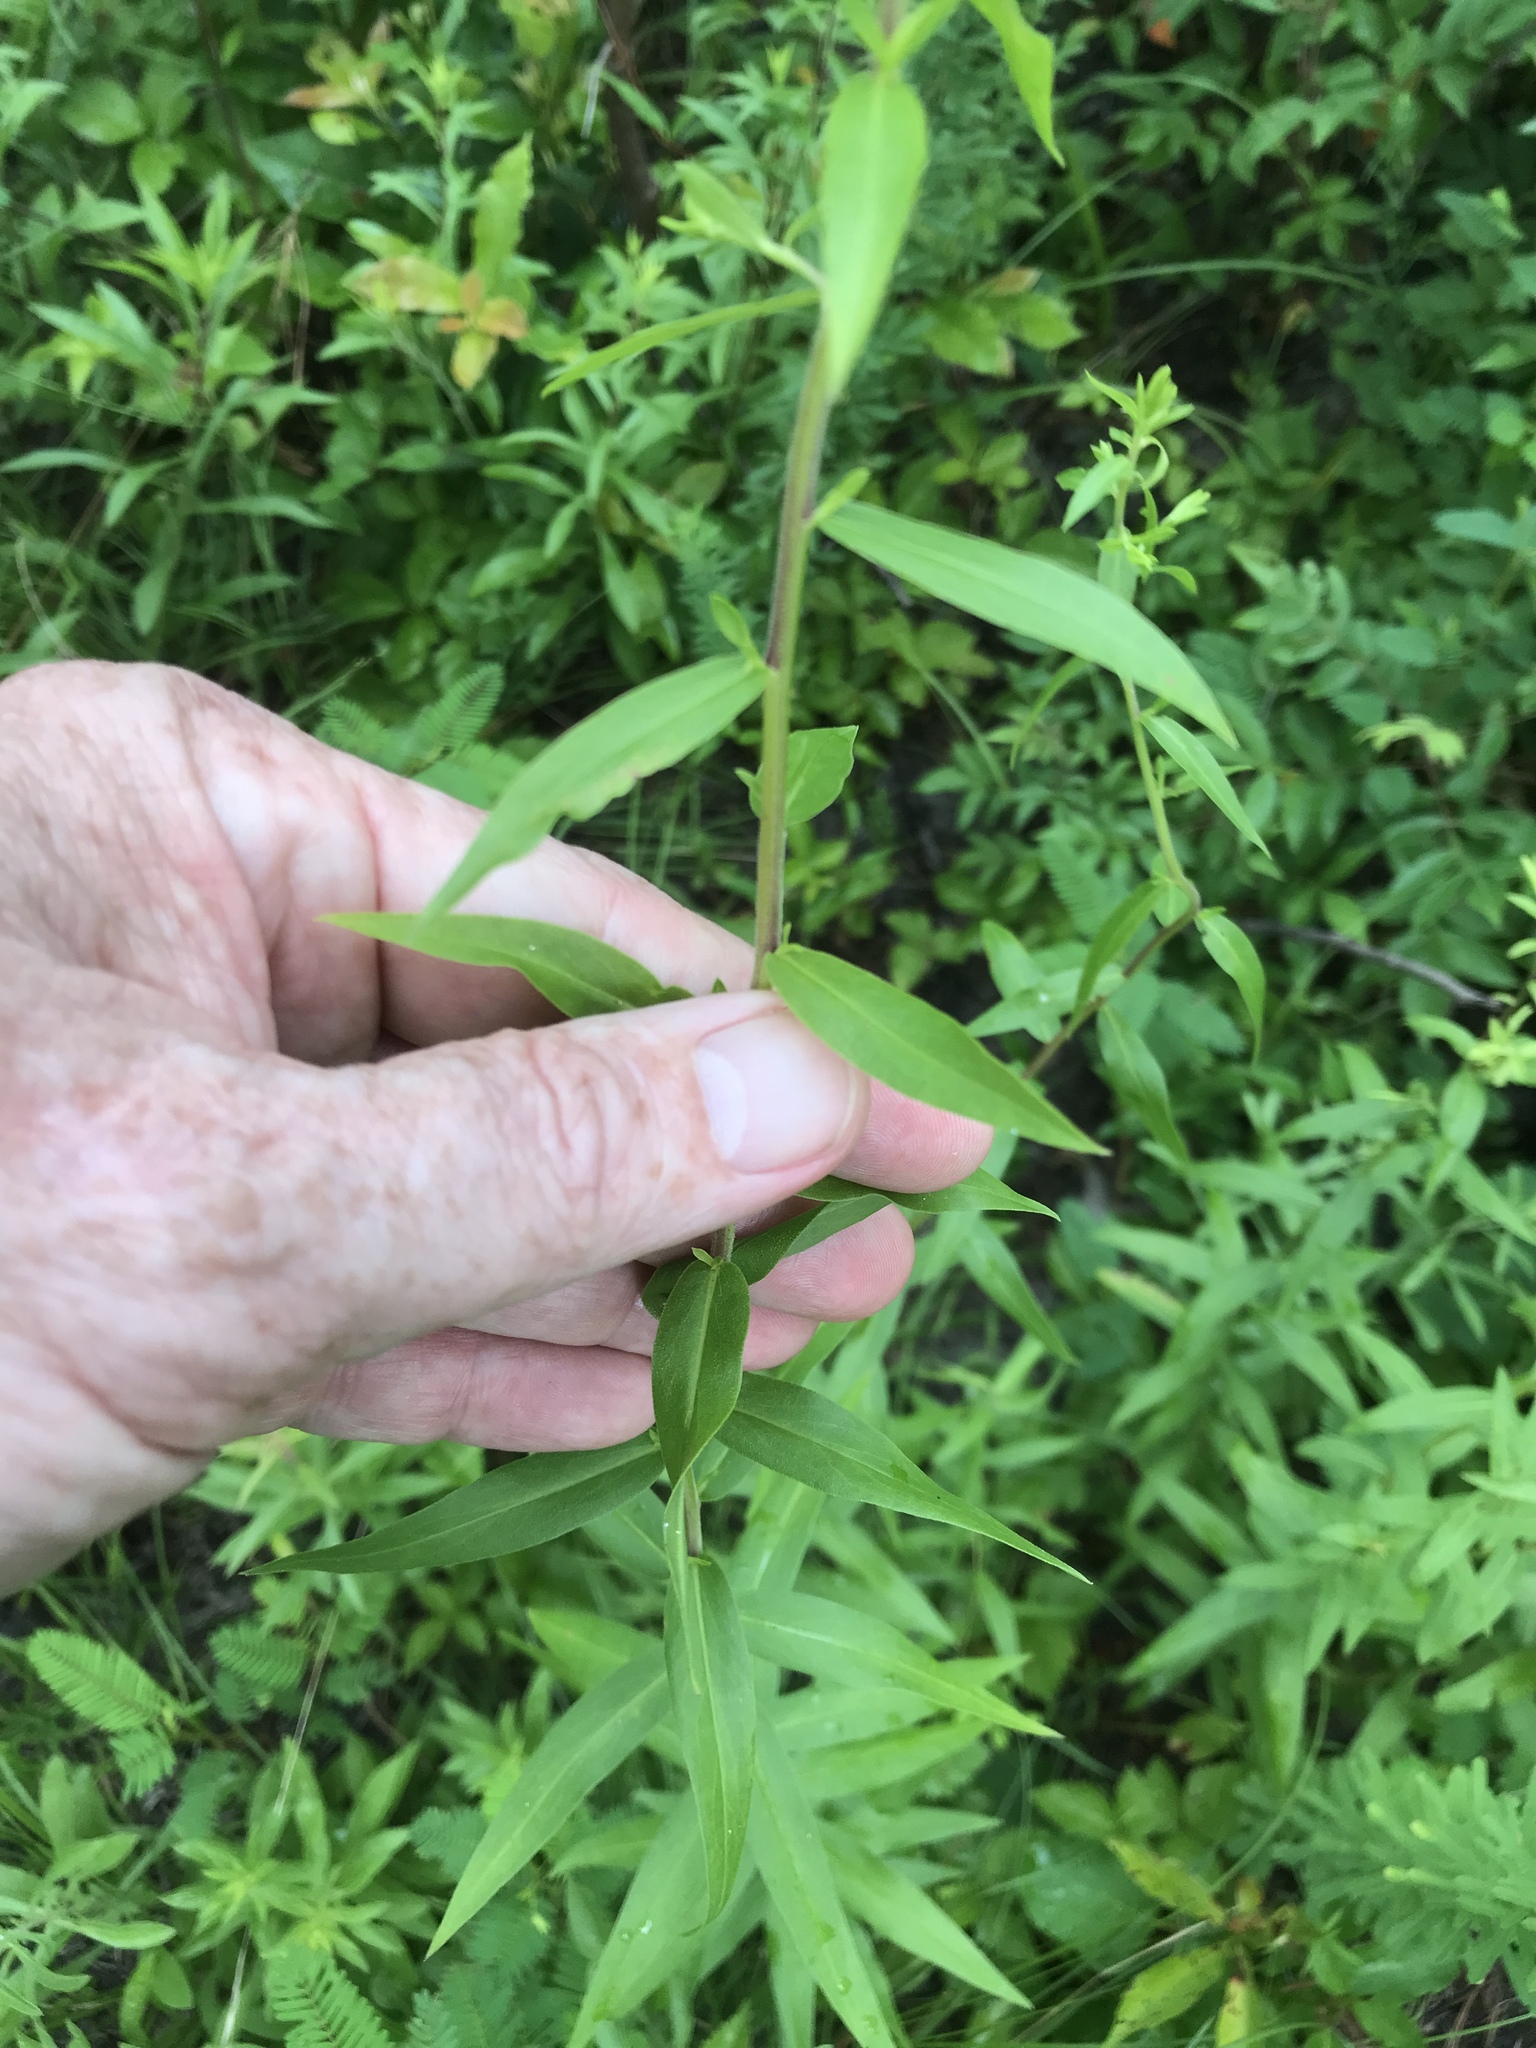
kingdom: Plantae
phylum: Tracheophyta
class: Magnoliopsida
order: Asterales
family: Asteraceae
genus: Solidago
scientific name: Solidago odora
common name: Anise-scented goldenrod
